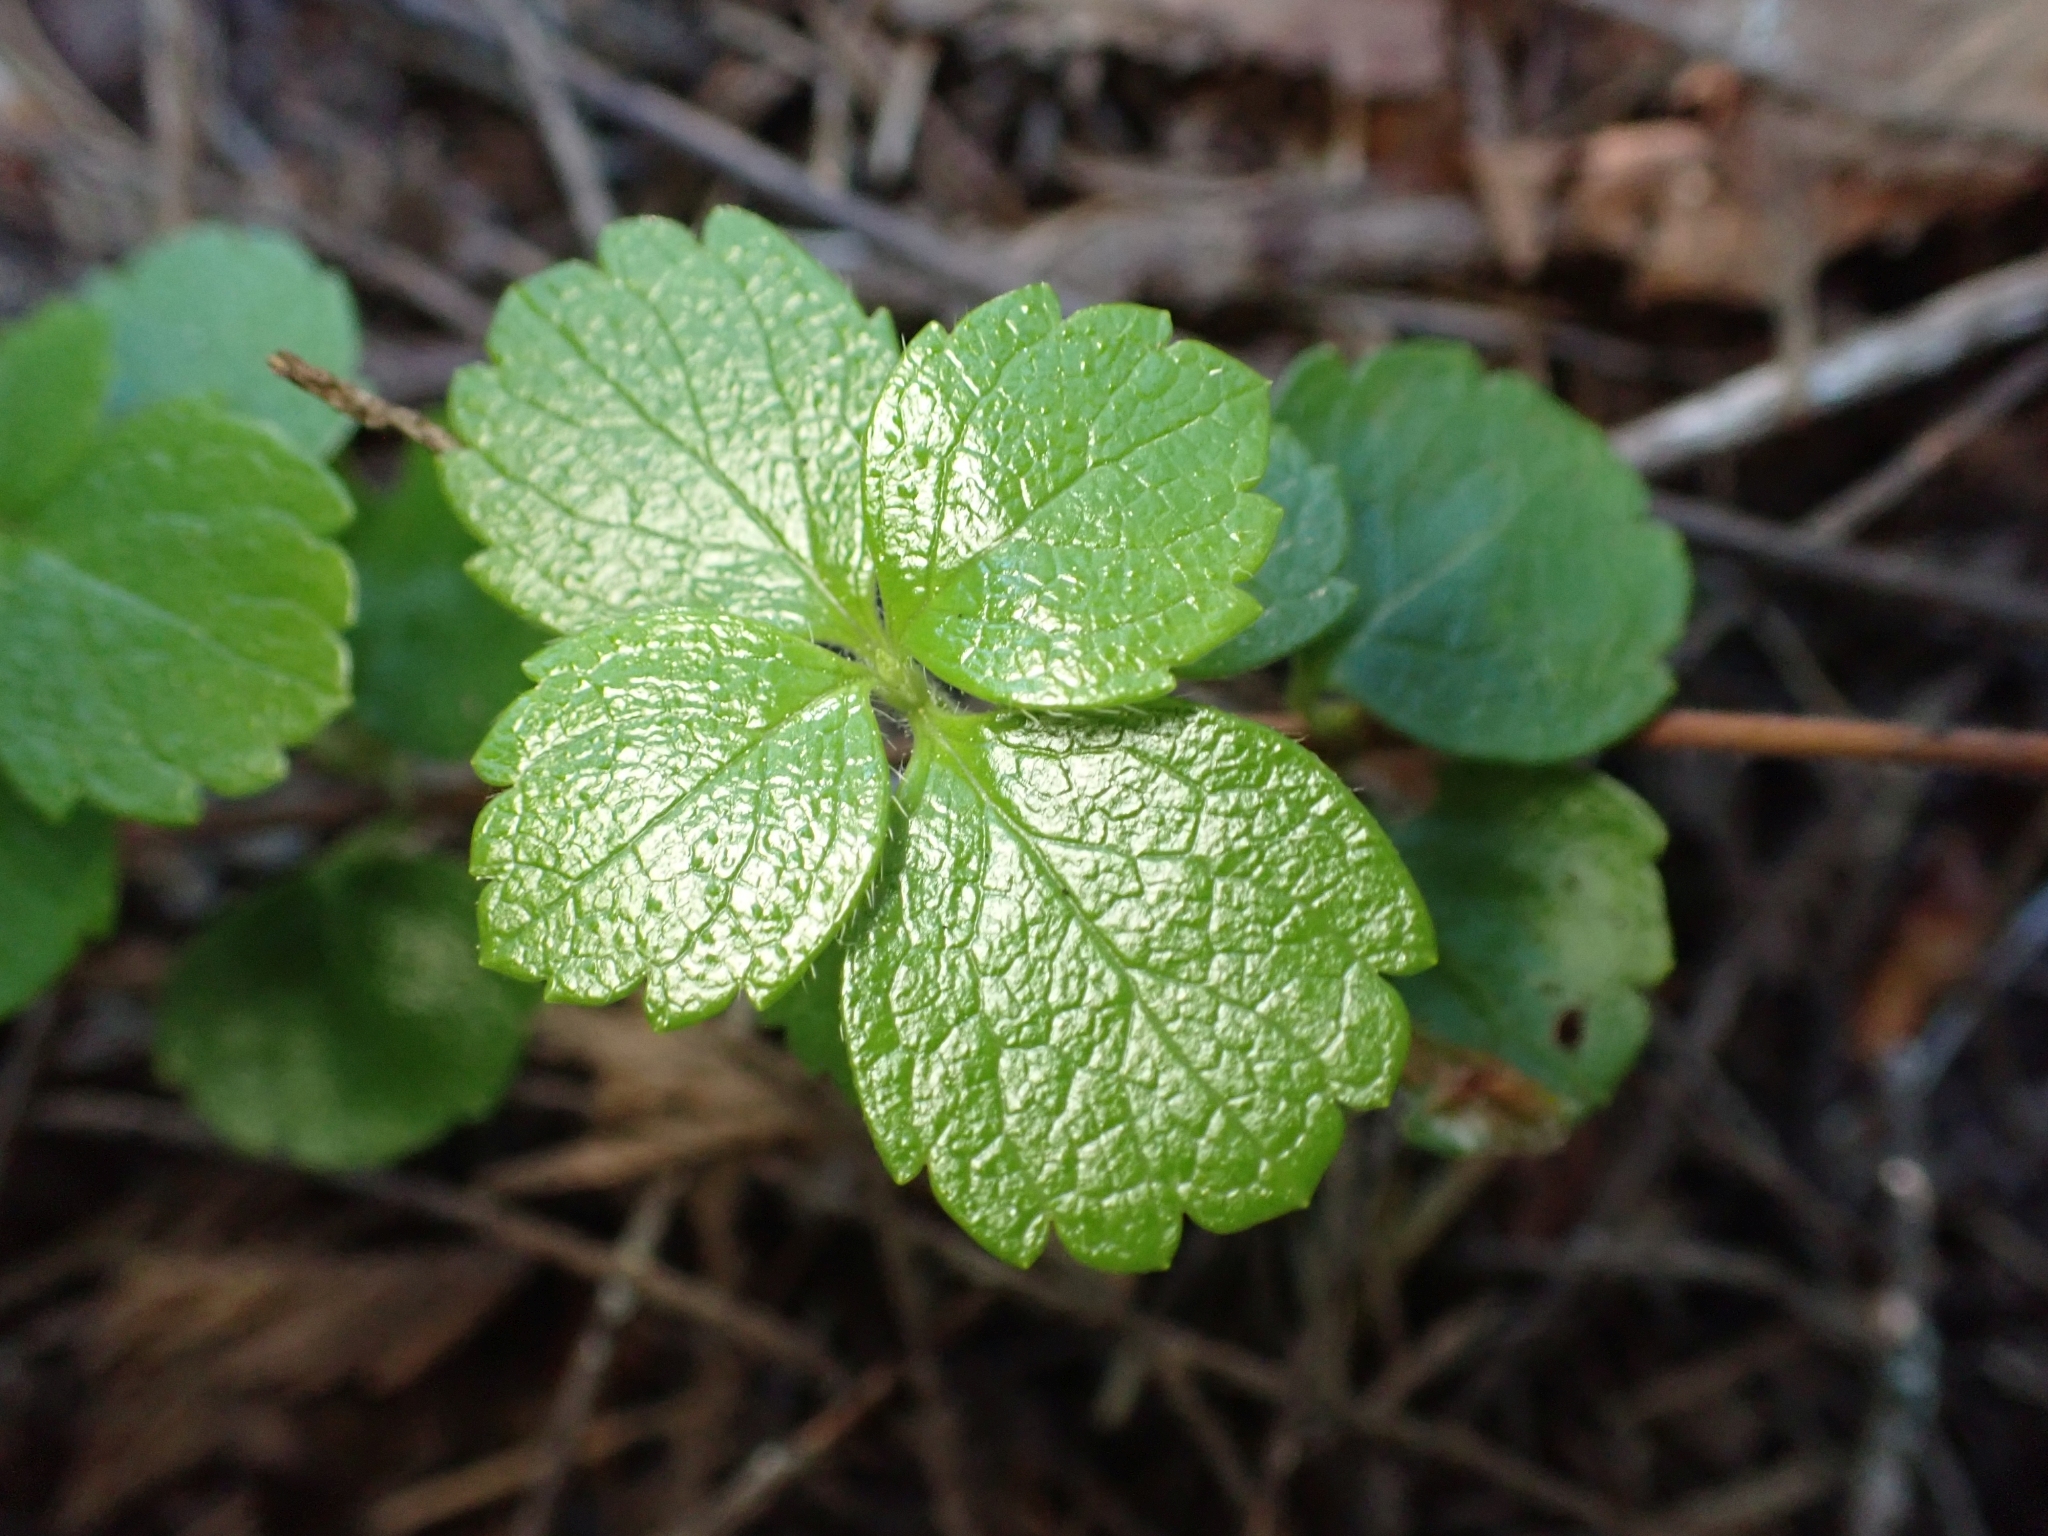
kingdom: Plantae
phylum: Tracheophyta
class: Magnoliopsida
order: Dipsacales
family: Caprifoliaceae
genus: Linnaea
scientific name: Linnaea borealis
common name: Twinflower
